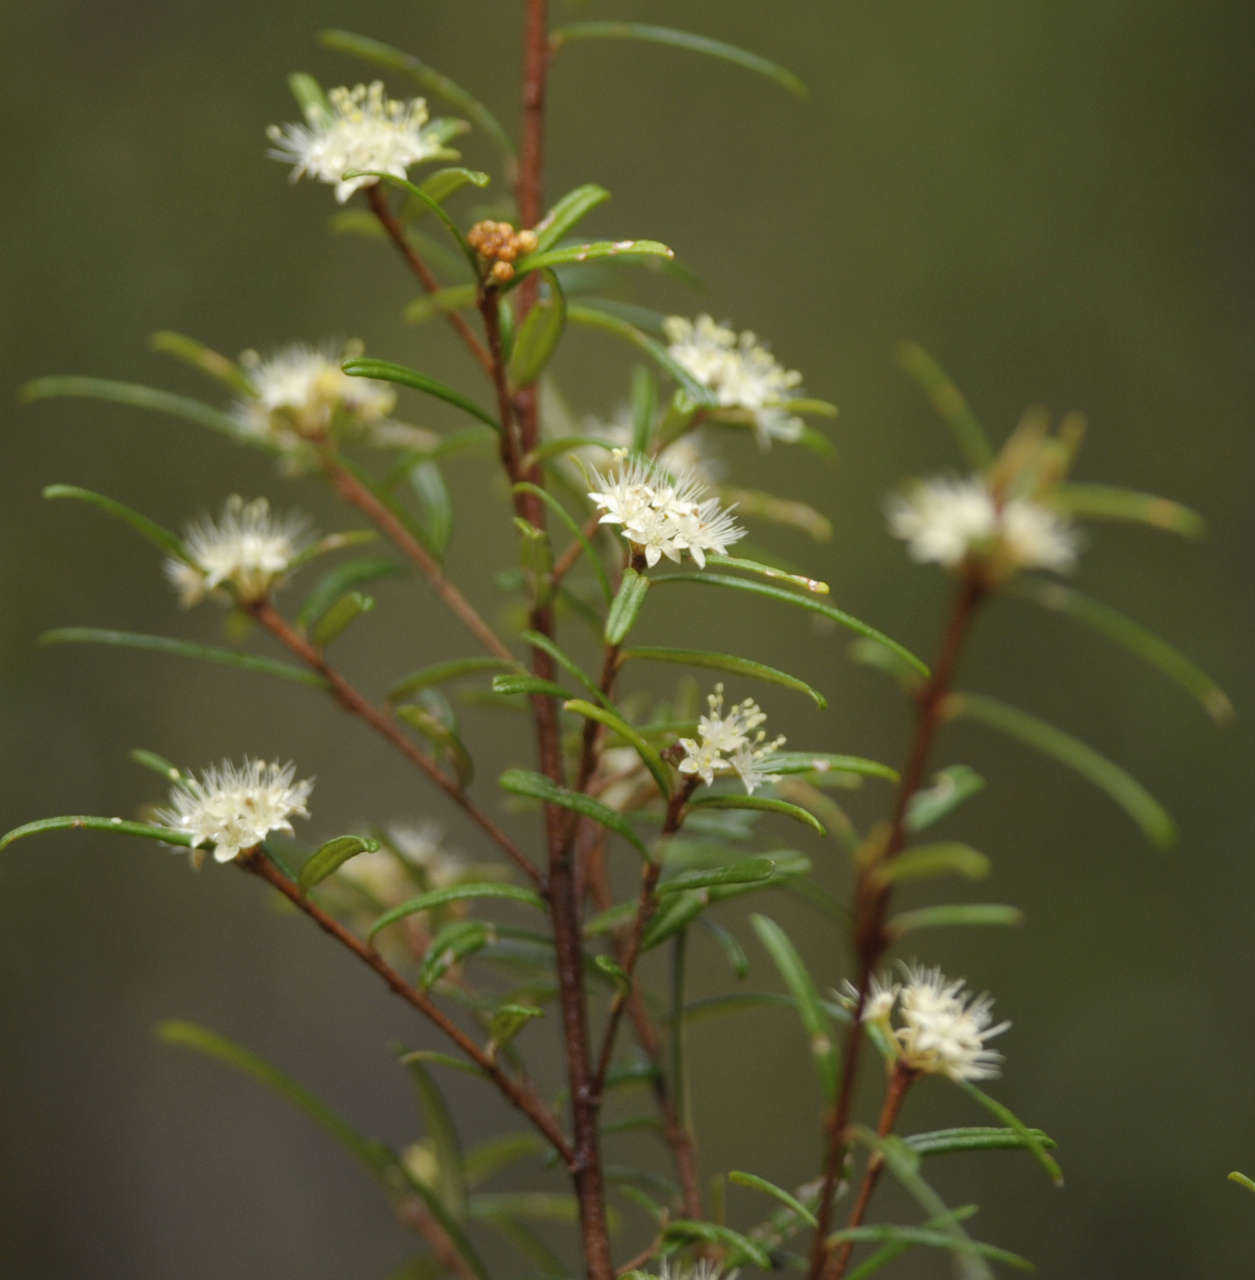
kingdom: Plantae
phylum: Tracheophyta
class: Magnoliopsida
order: Sapindales
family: Rutaceae
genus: Phebalium
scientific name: Phebalium squamulosum
